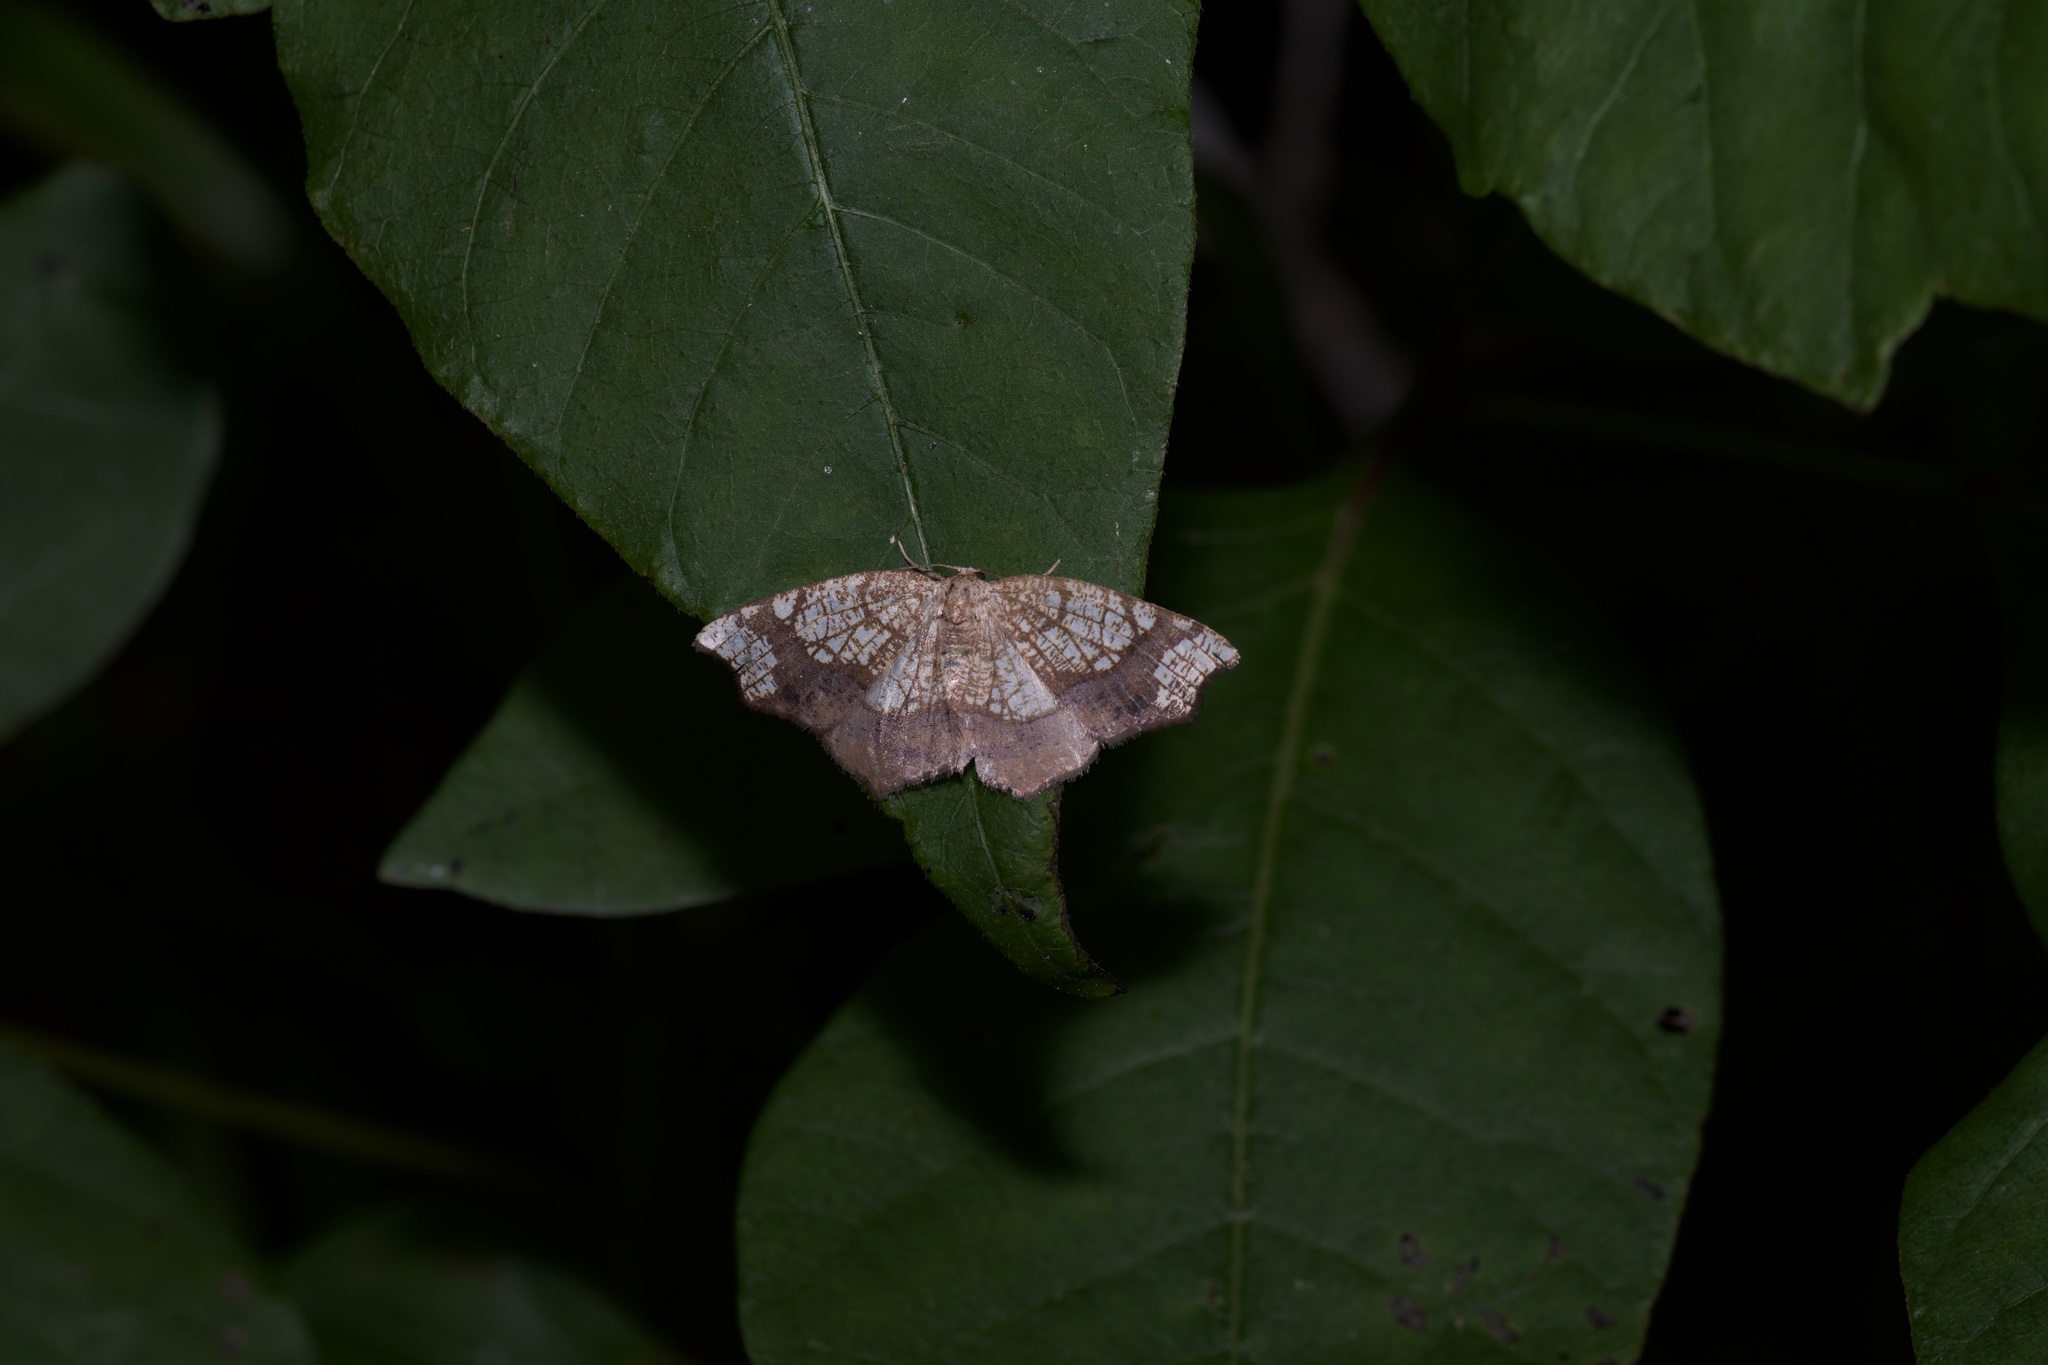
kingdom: Animalia
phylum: Arthropoda
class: Insecta
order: Lepidoptera
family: Geometridae
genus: Nematocampa
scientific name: Nematocampa resistaria
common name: Horned spanworm moth
